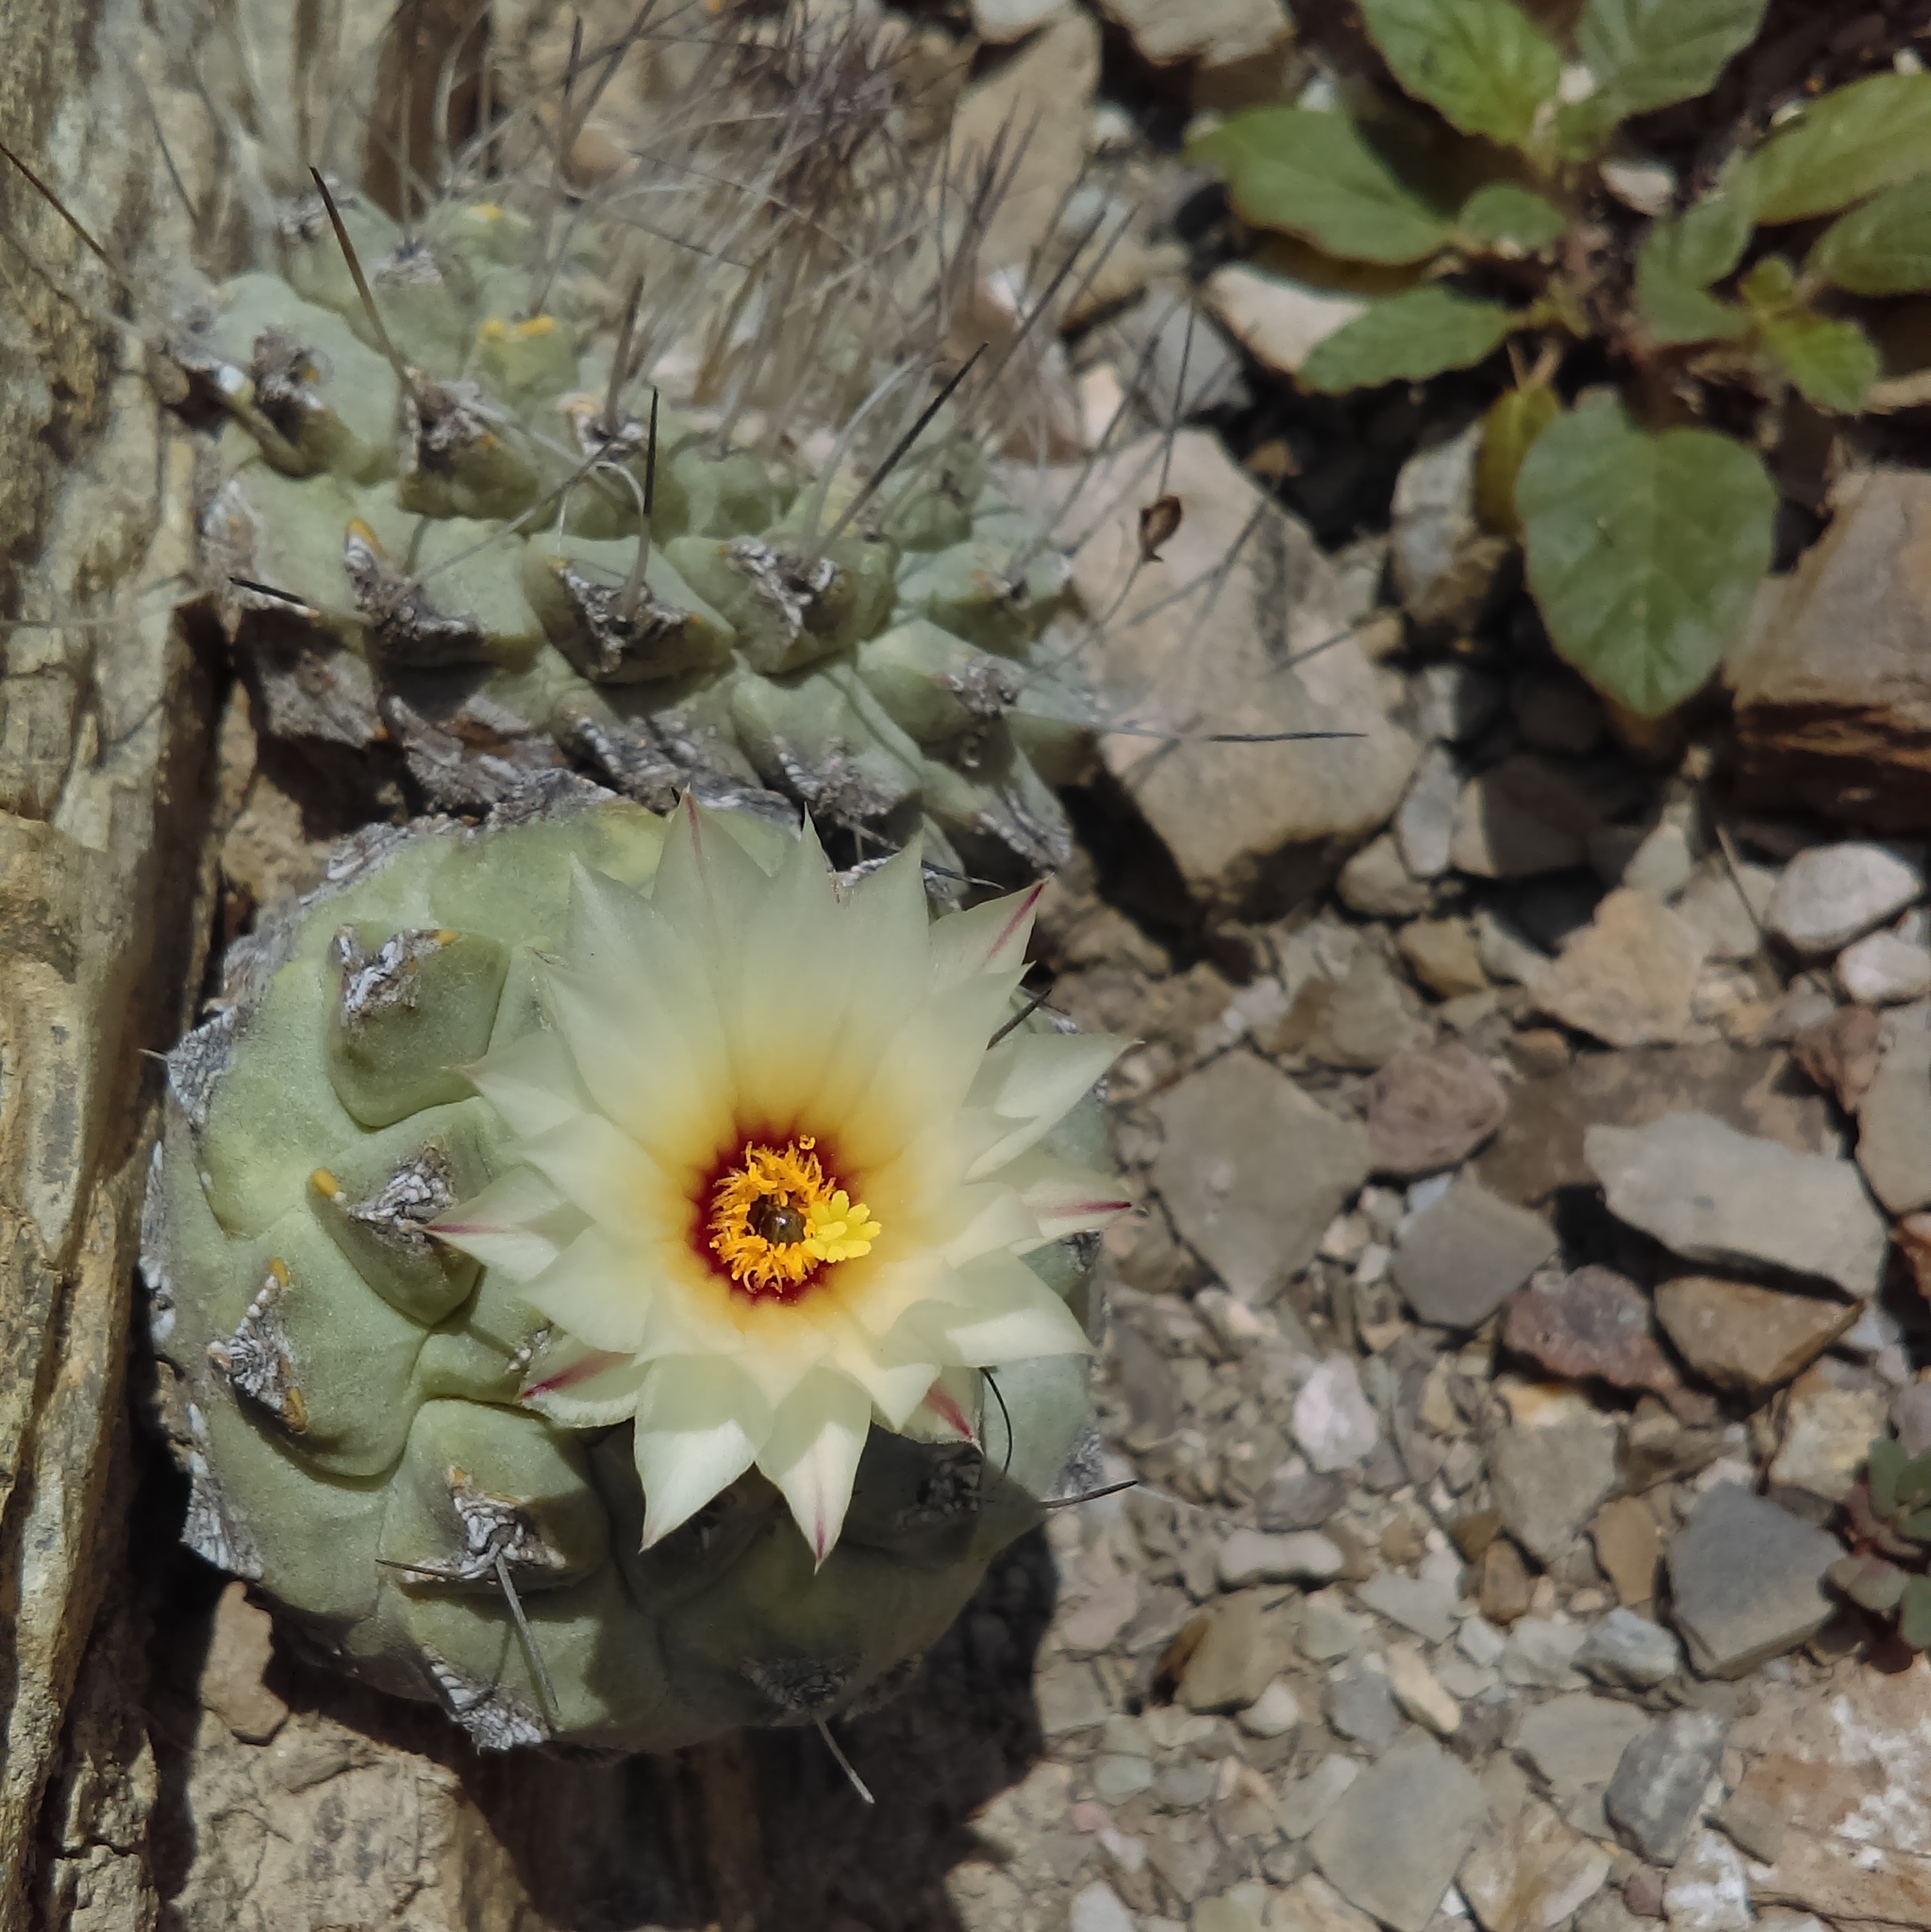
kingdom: Plantae
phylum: Tracheophyta
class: Magnoliopsida
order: Caryophyllales
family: Cactaceae
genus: Strombocactus
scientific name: Strombocactus disciformis
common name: Top cactus
